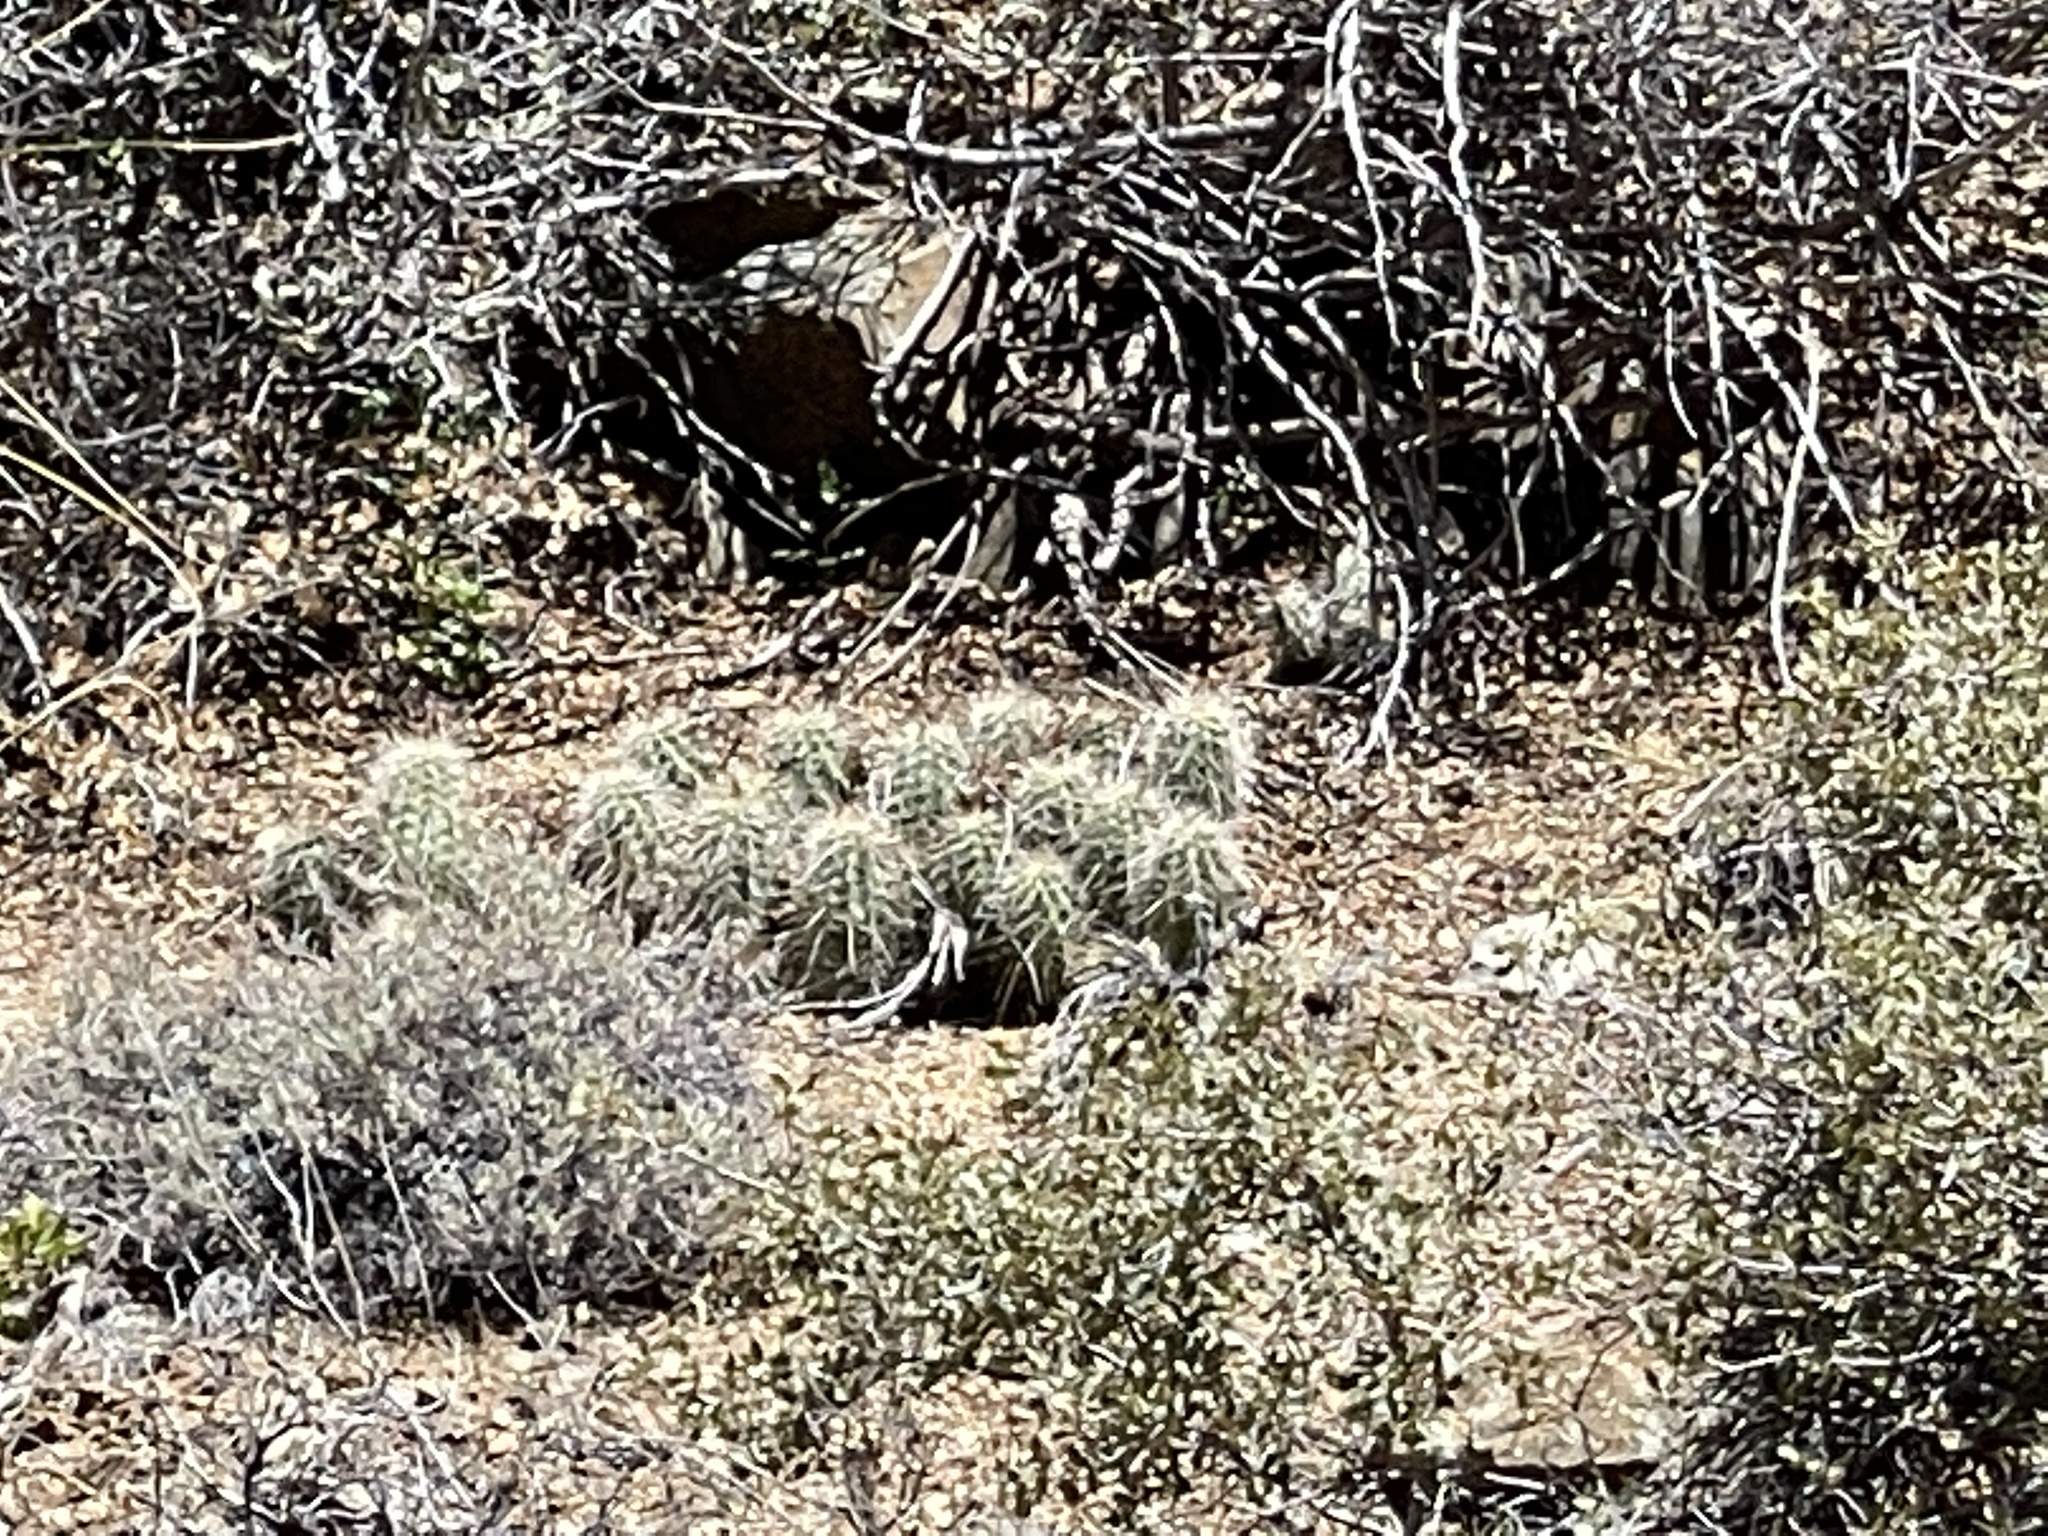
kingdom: Plantae
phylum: Tracheophyta
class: Magnoliopsida
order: Caryophyllales
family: Cactaceae
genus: Echinocereus
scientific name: Echinocereus bakeri
